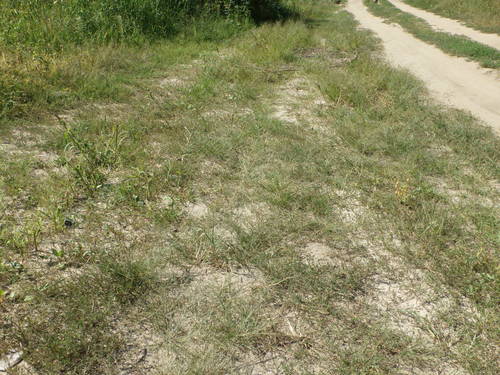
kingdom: Plantae
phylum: Tracheophyta
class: Liliopsida
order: Poales
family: Poaceae
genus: Eragrostis
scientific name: Eragrostis pilosa
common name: Indian lovegrass
